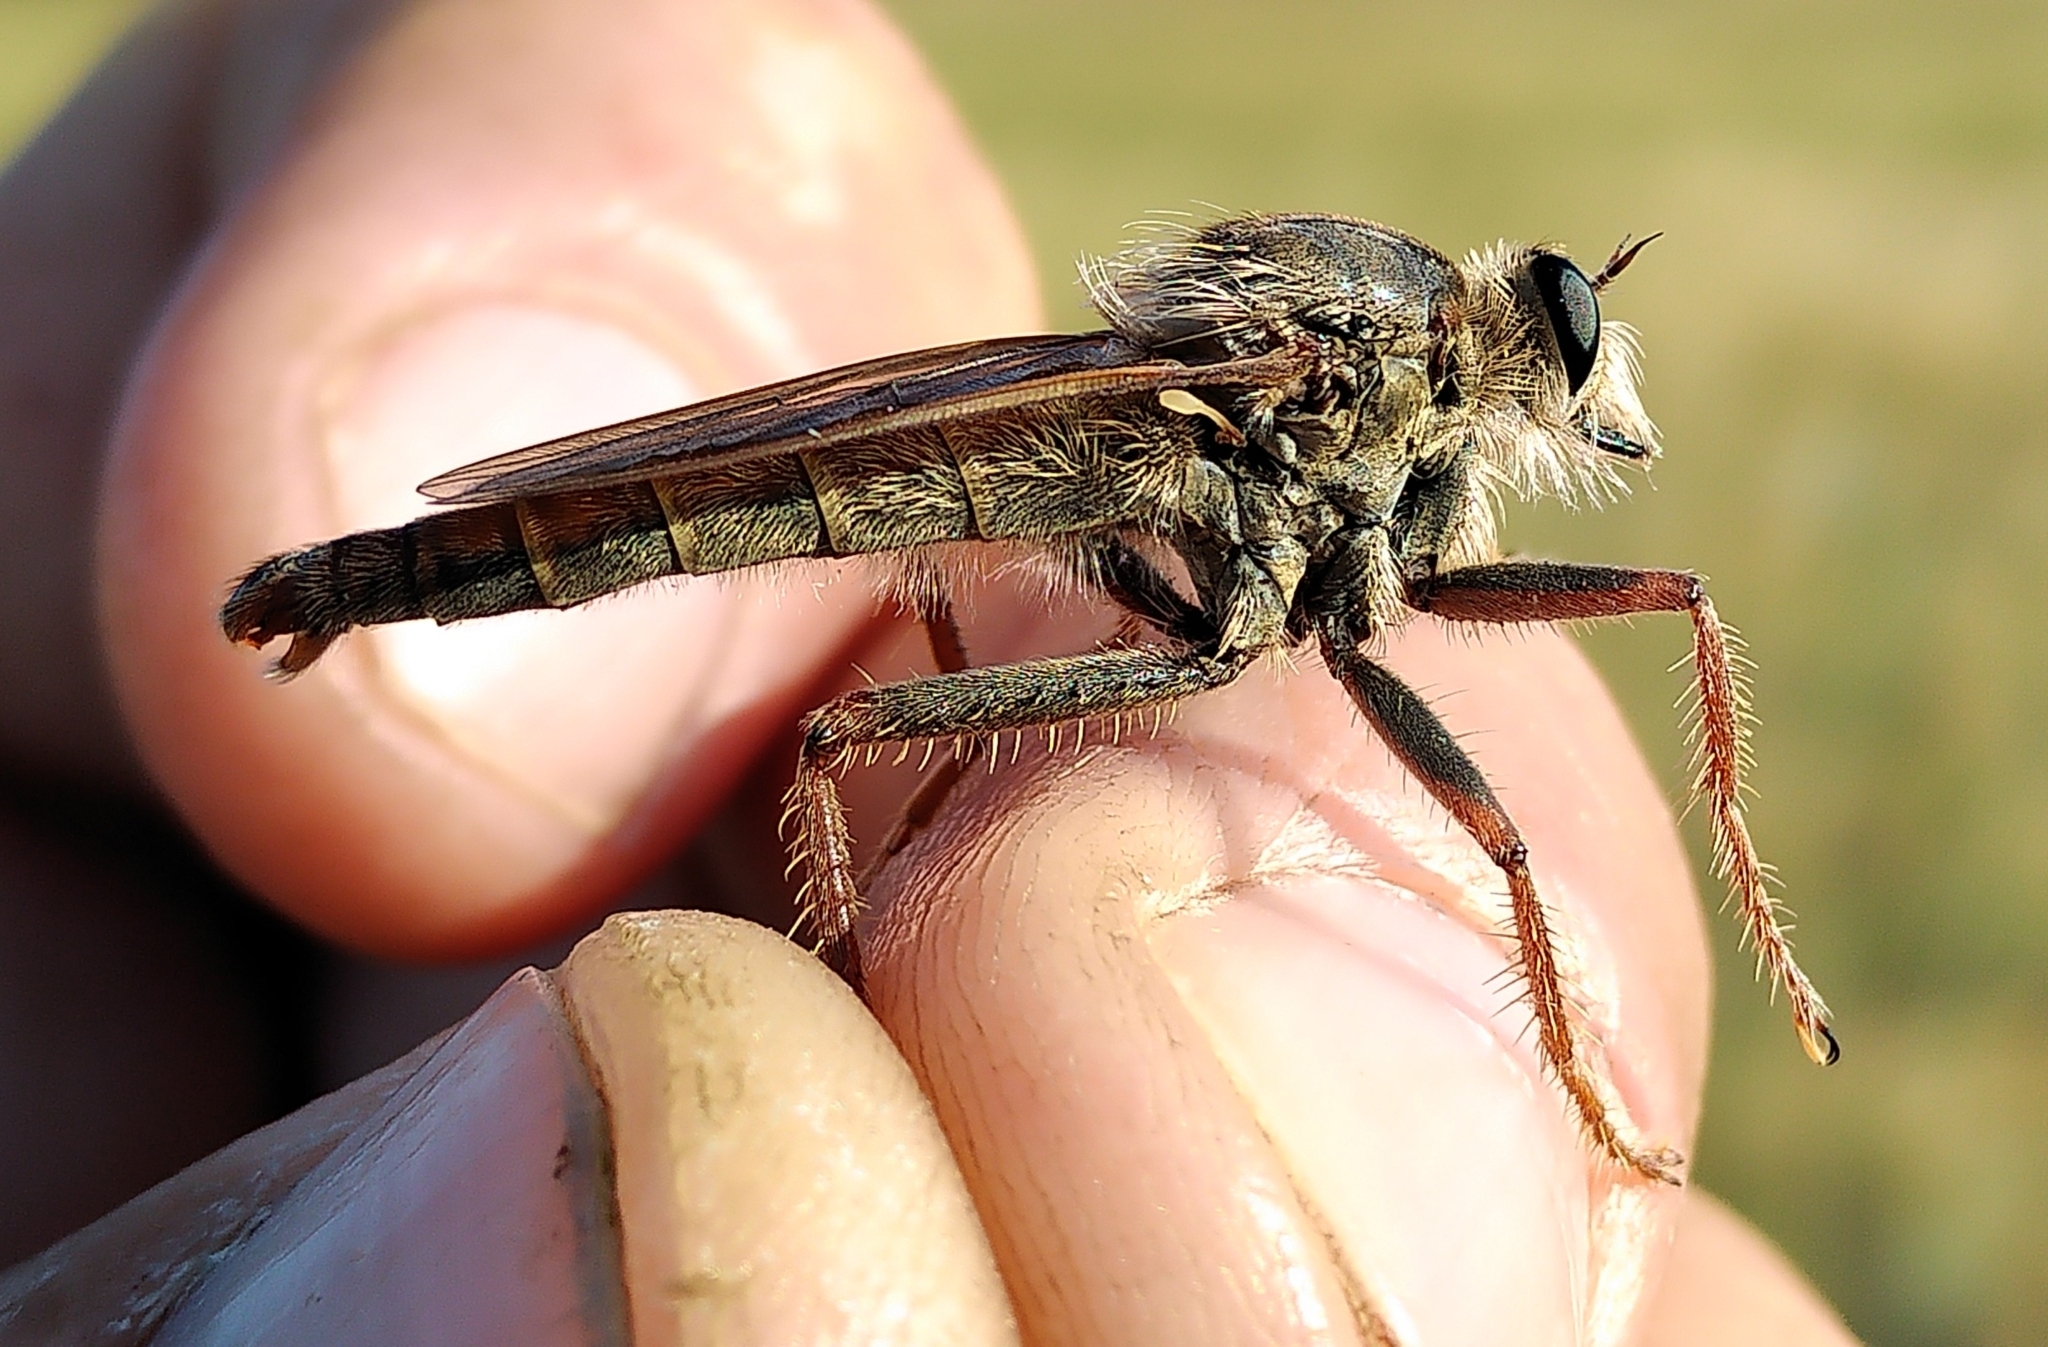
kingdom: Animalia
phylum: Arthropoda
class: Insecta
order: Diptera
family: Asilidae
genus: Stenopogon
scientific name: Stenopogon inquinatus
